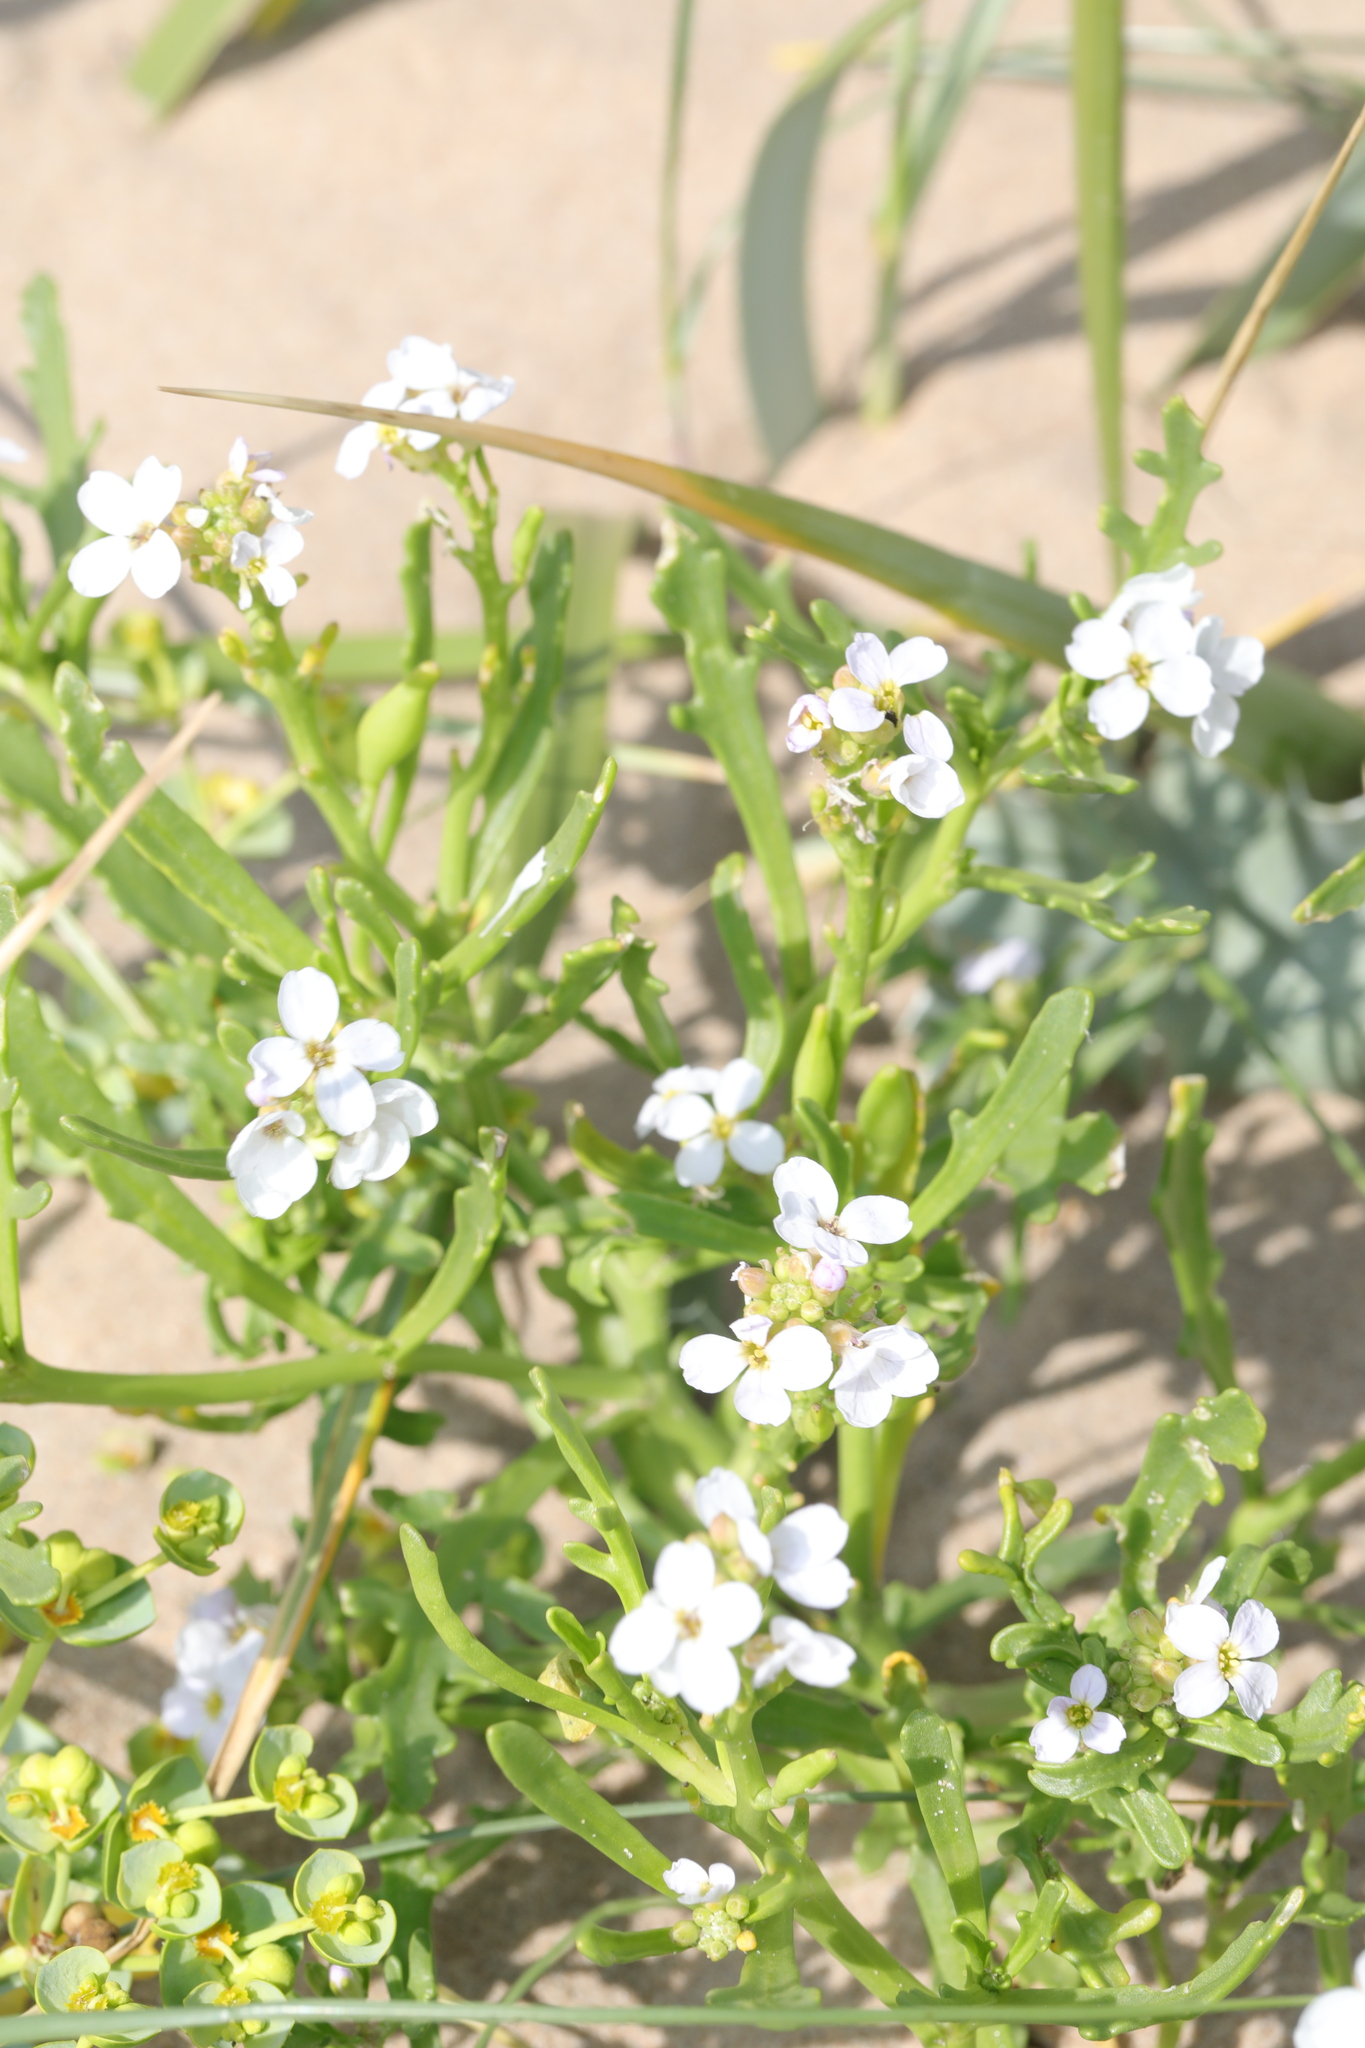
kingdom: Plantae
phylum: Tracheophyta
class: Magnoliopsida
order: Brassicales
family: Brassicaceae
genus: Cakile
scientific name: Cakile maritima
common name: Sea rocket
